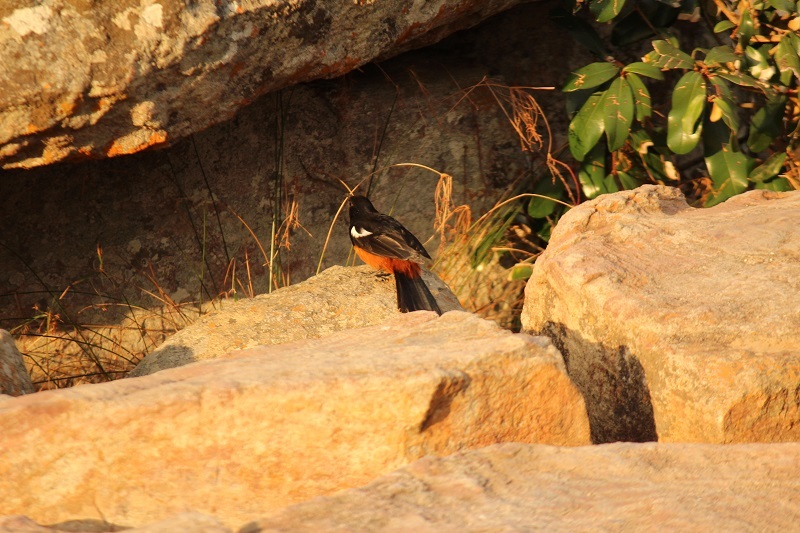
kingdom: Animalia
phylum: Chordata
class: Aves
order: Passeriformes
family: Muscicapidae
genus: Thamnolaea
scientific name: Thamnolaea cinnamomeiventris
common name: Mocking cliff chat
